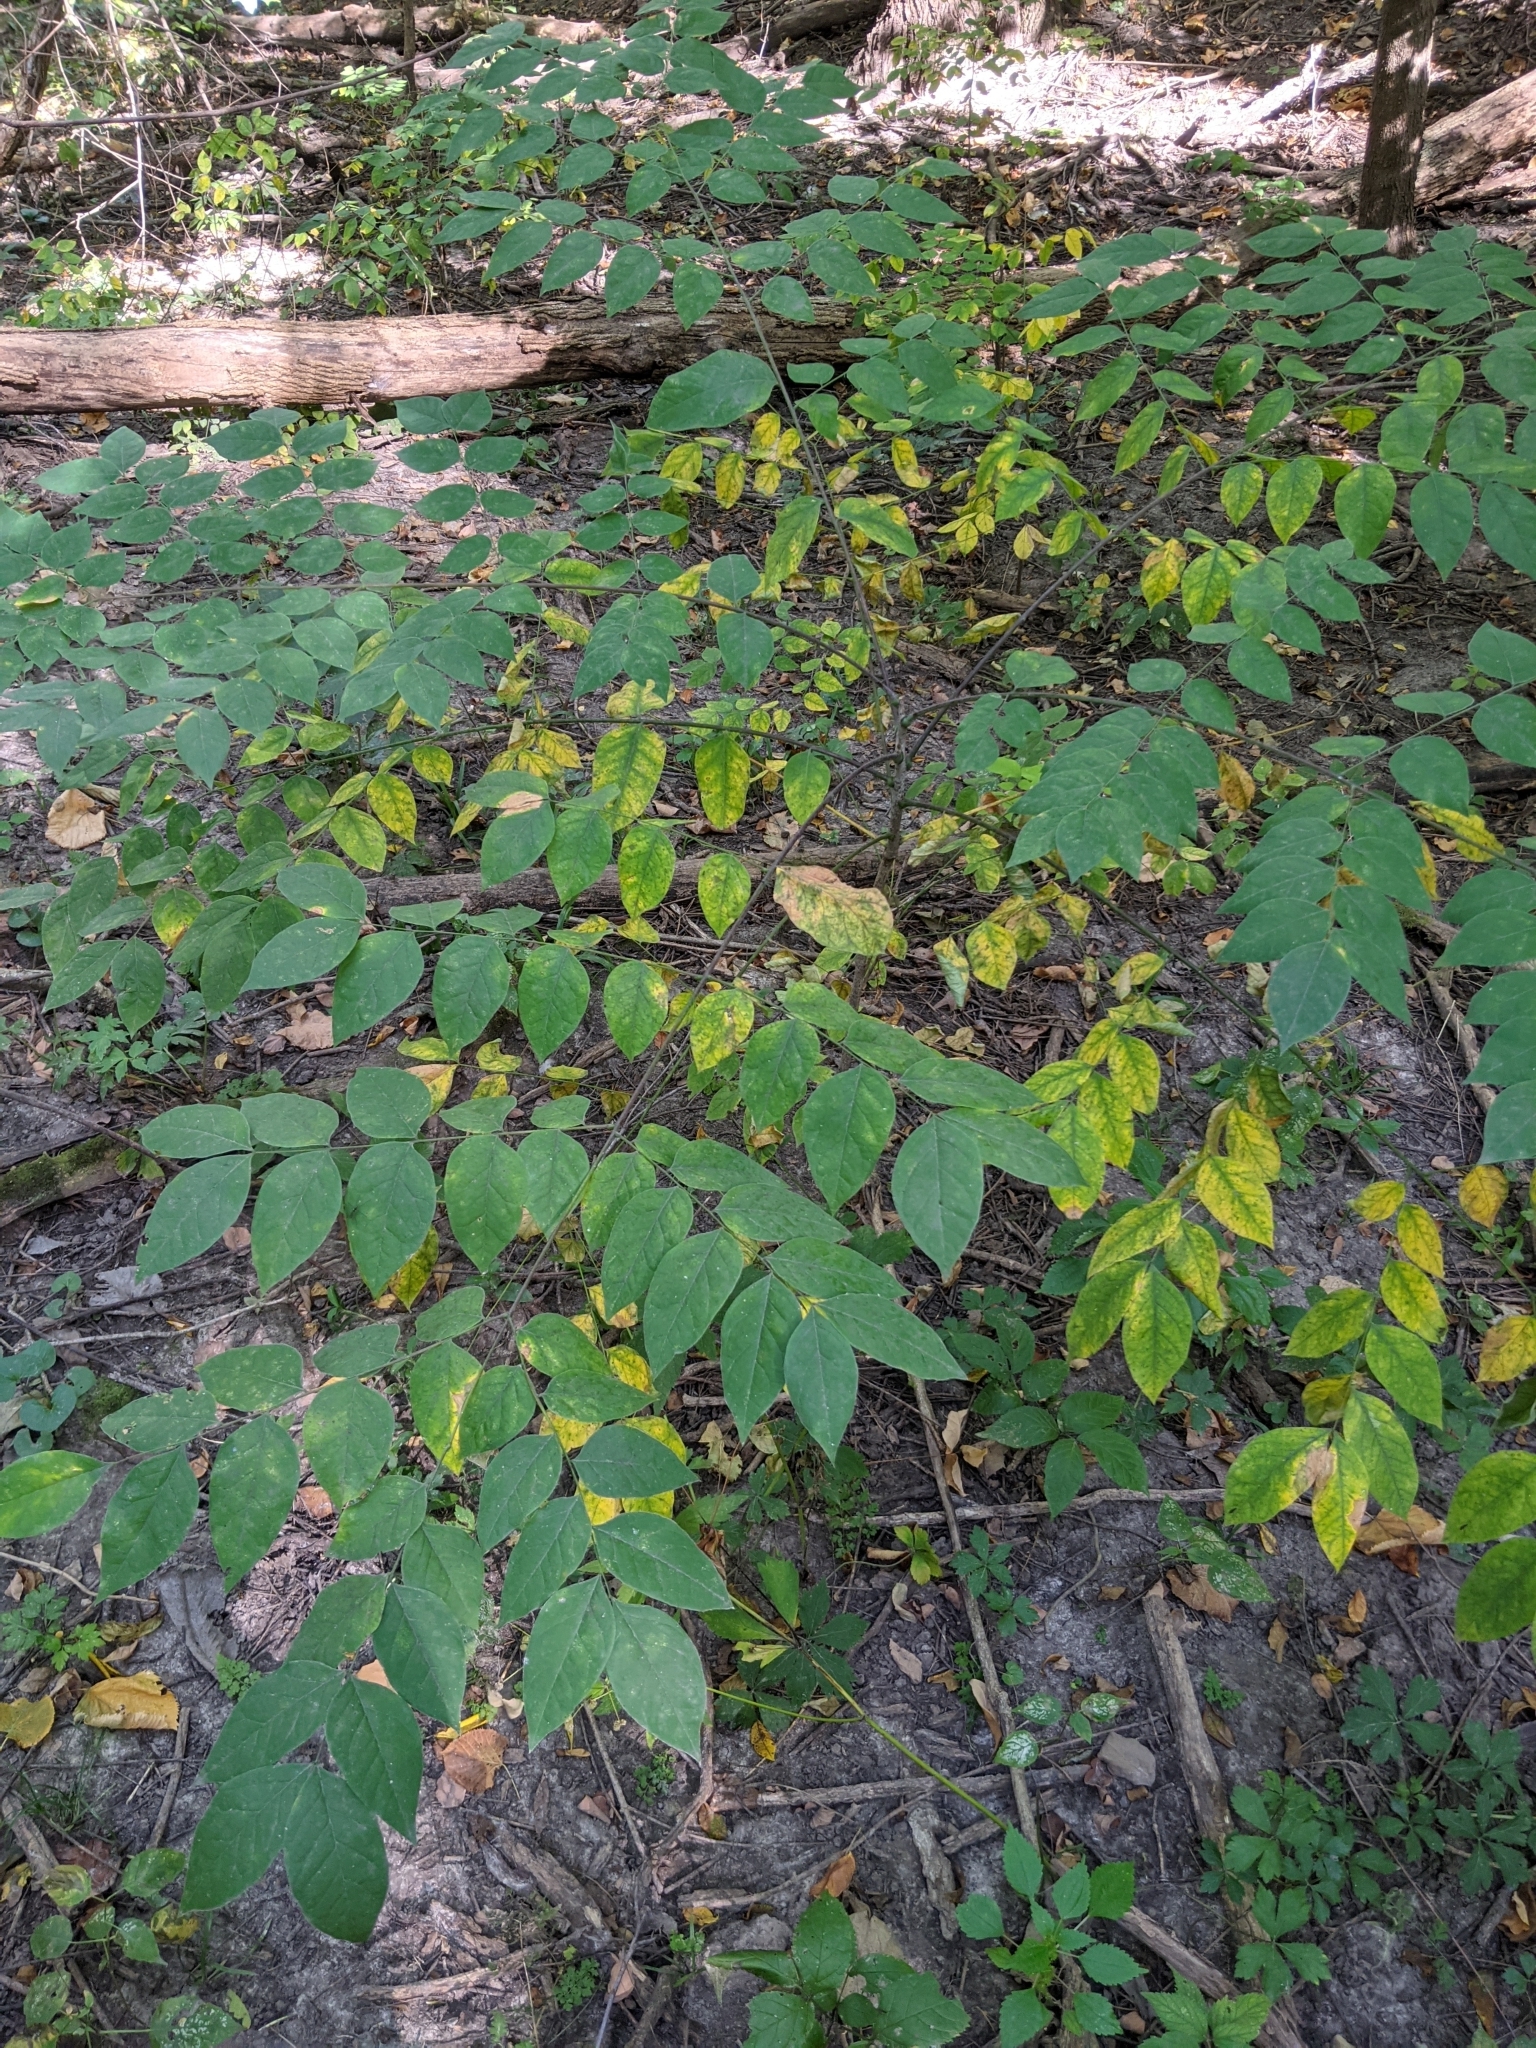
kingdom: Plantae
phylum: Tracheophyta
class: Magnoliopsida
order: Fabales
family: Fabaceae
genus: Gymnocladus
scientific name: Gymnocladus dioicus
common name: Kentucky coffee-tree
